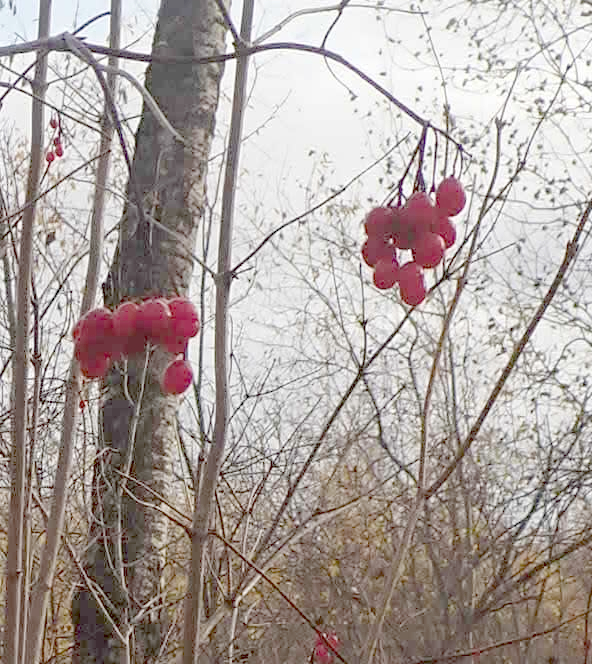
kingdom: Plantae
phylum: Tracheophyta
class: Magnoliopsida
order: Dipsacales
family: Viburnaceae
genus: Viburnum
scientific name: Viburnum trilobum
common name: American cranberrybush
